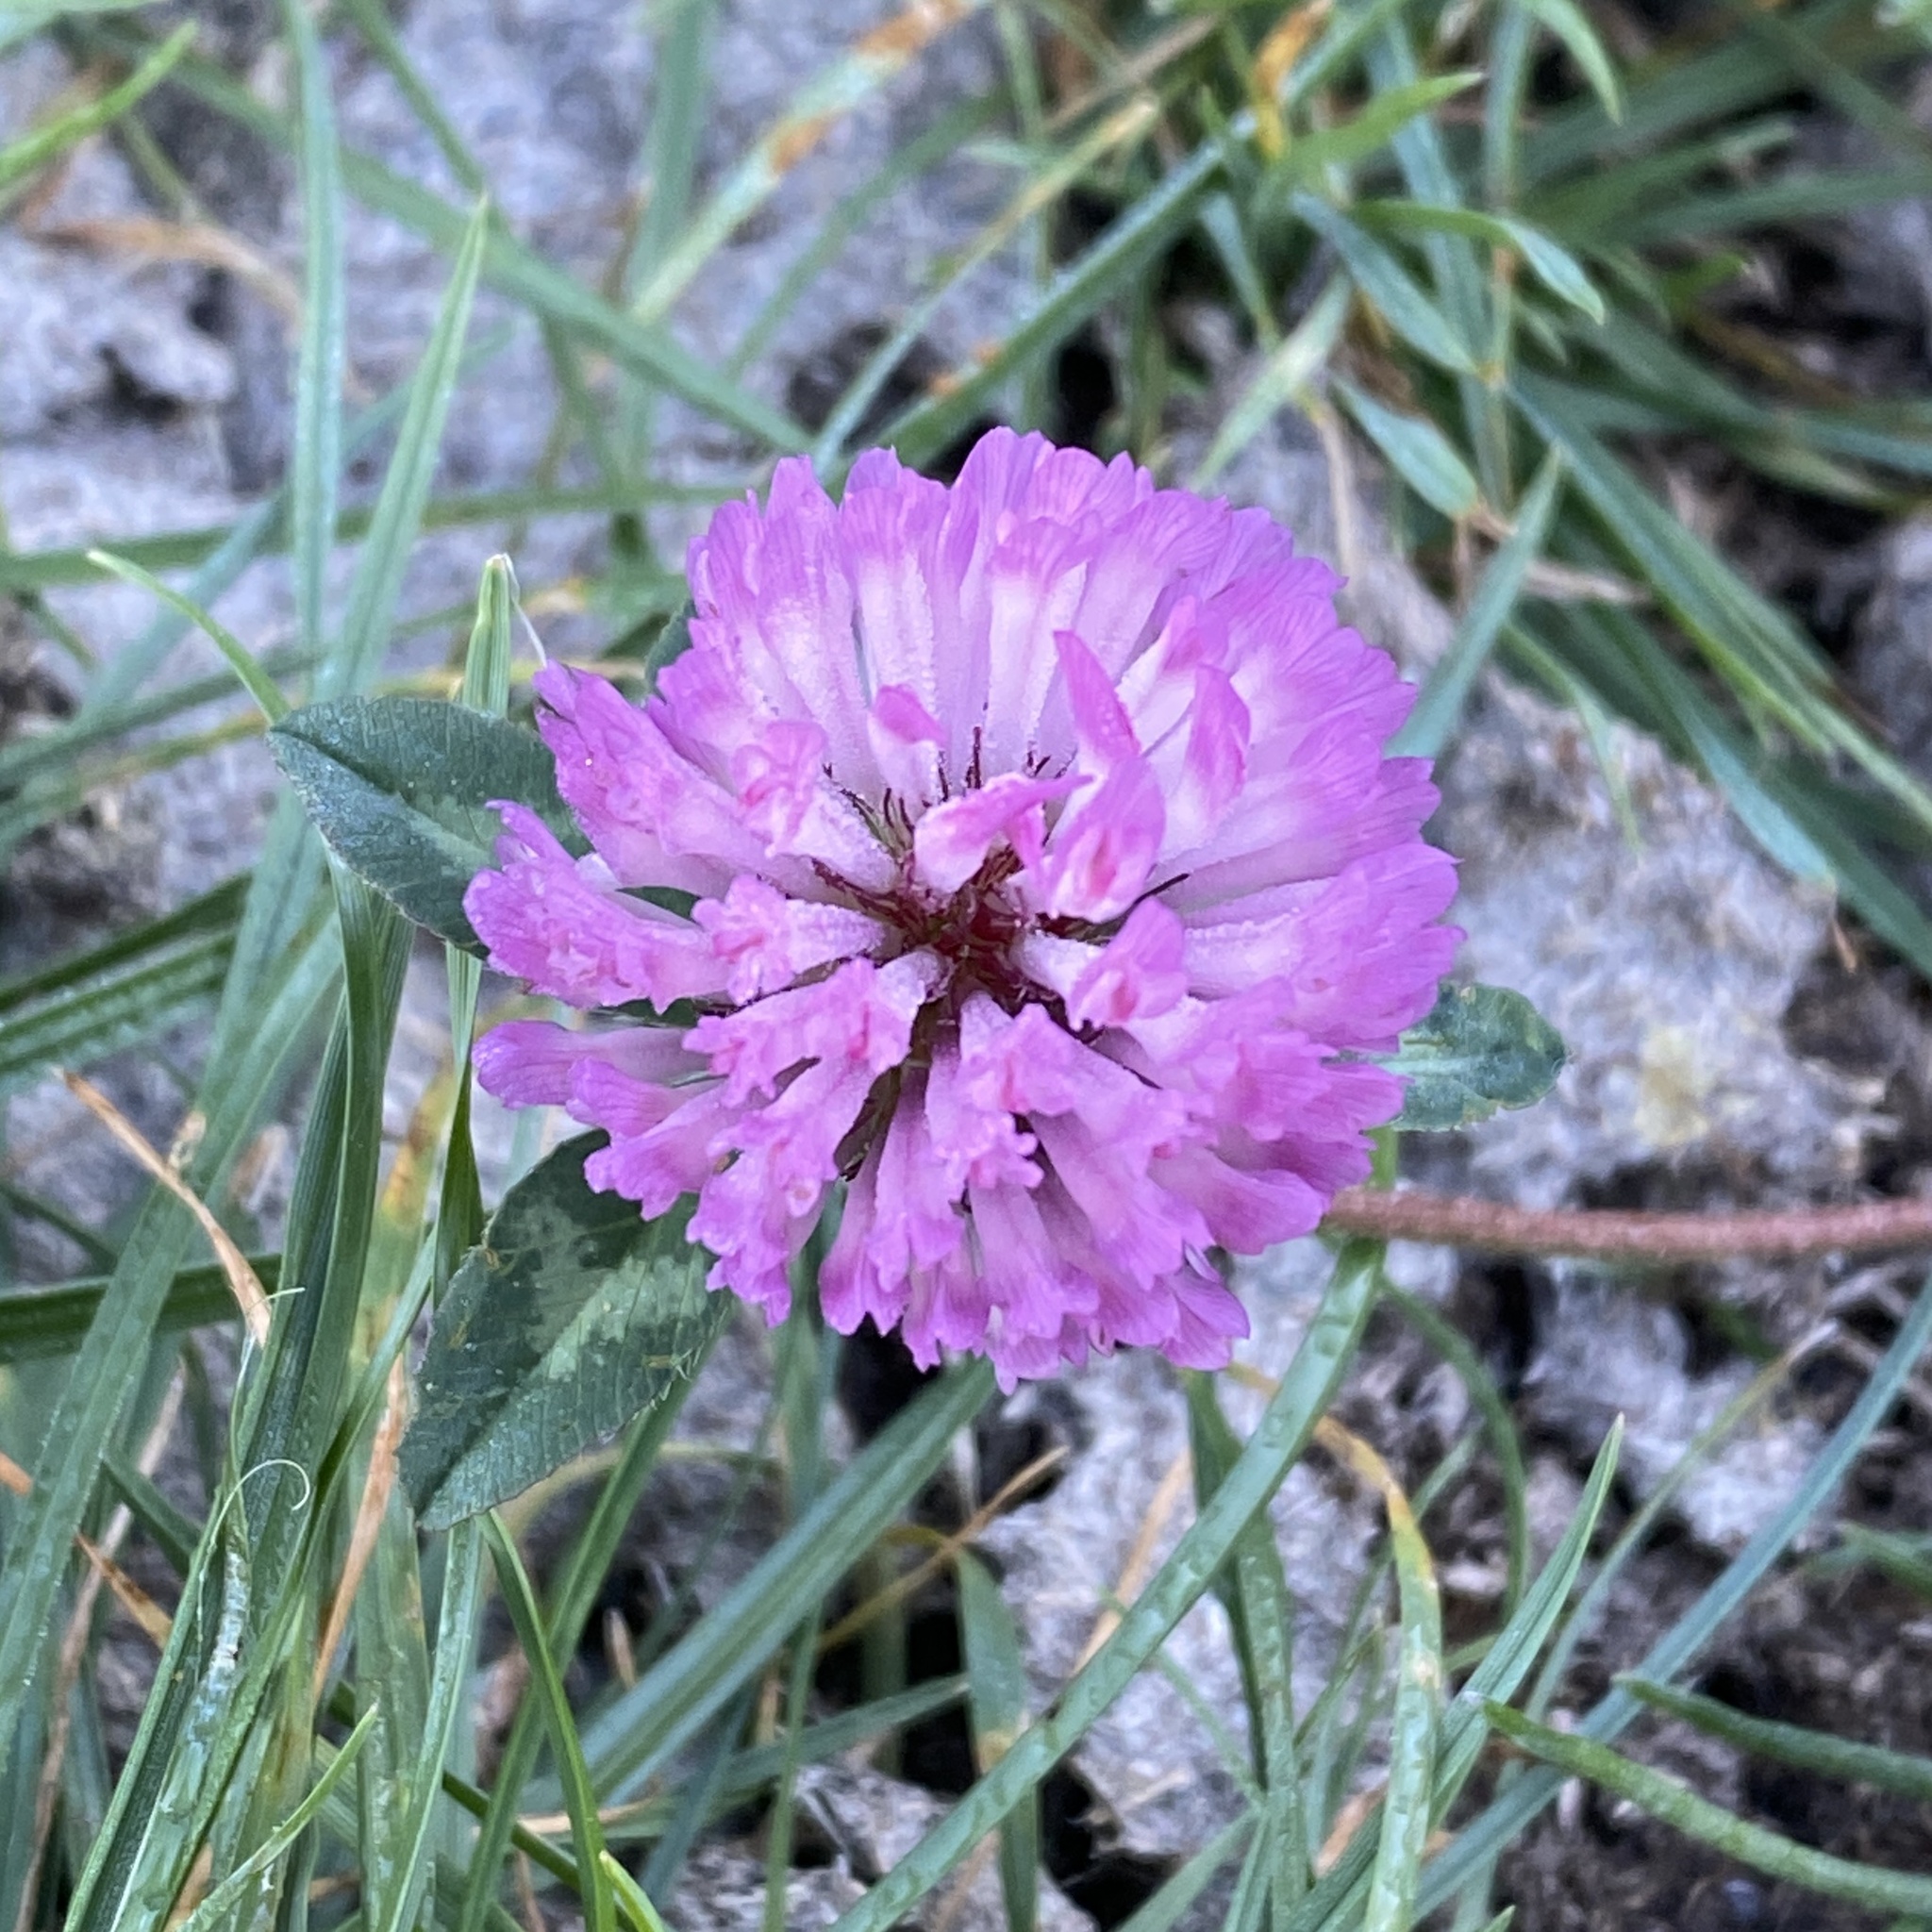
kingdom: Plantae
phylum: Tracheophyta
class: Magnoliopsida
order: Fabales
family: Fabaceae
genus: Trifolium
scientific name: Trifolium pratense
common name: Red clover
